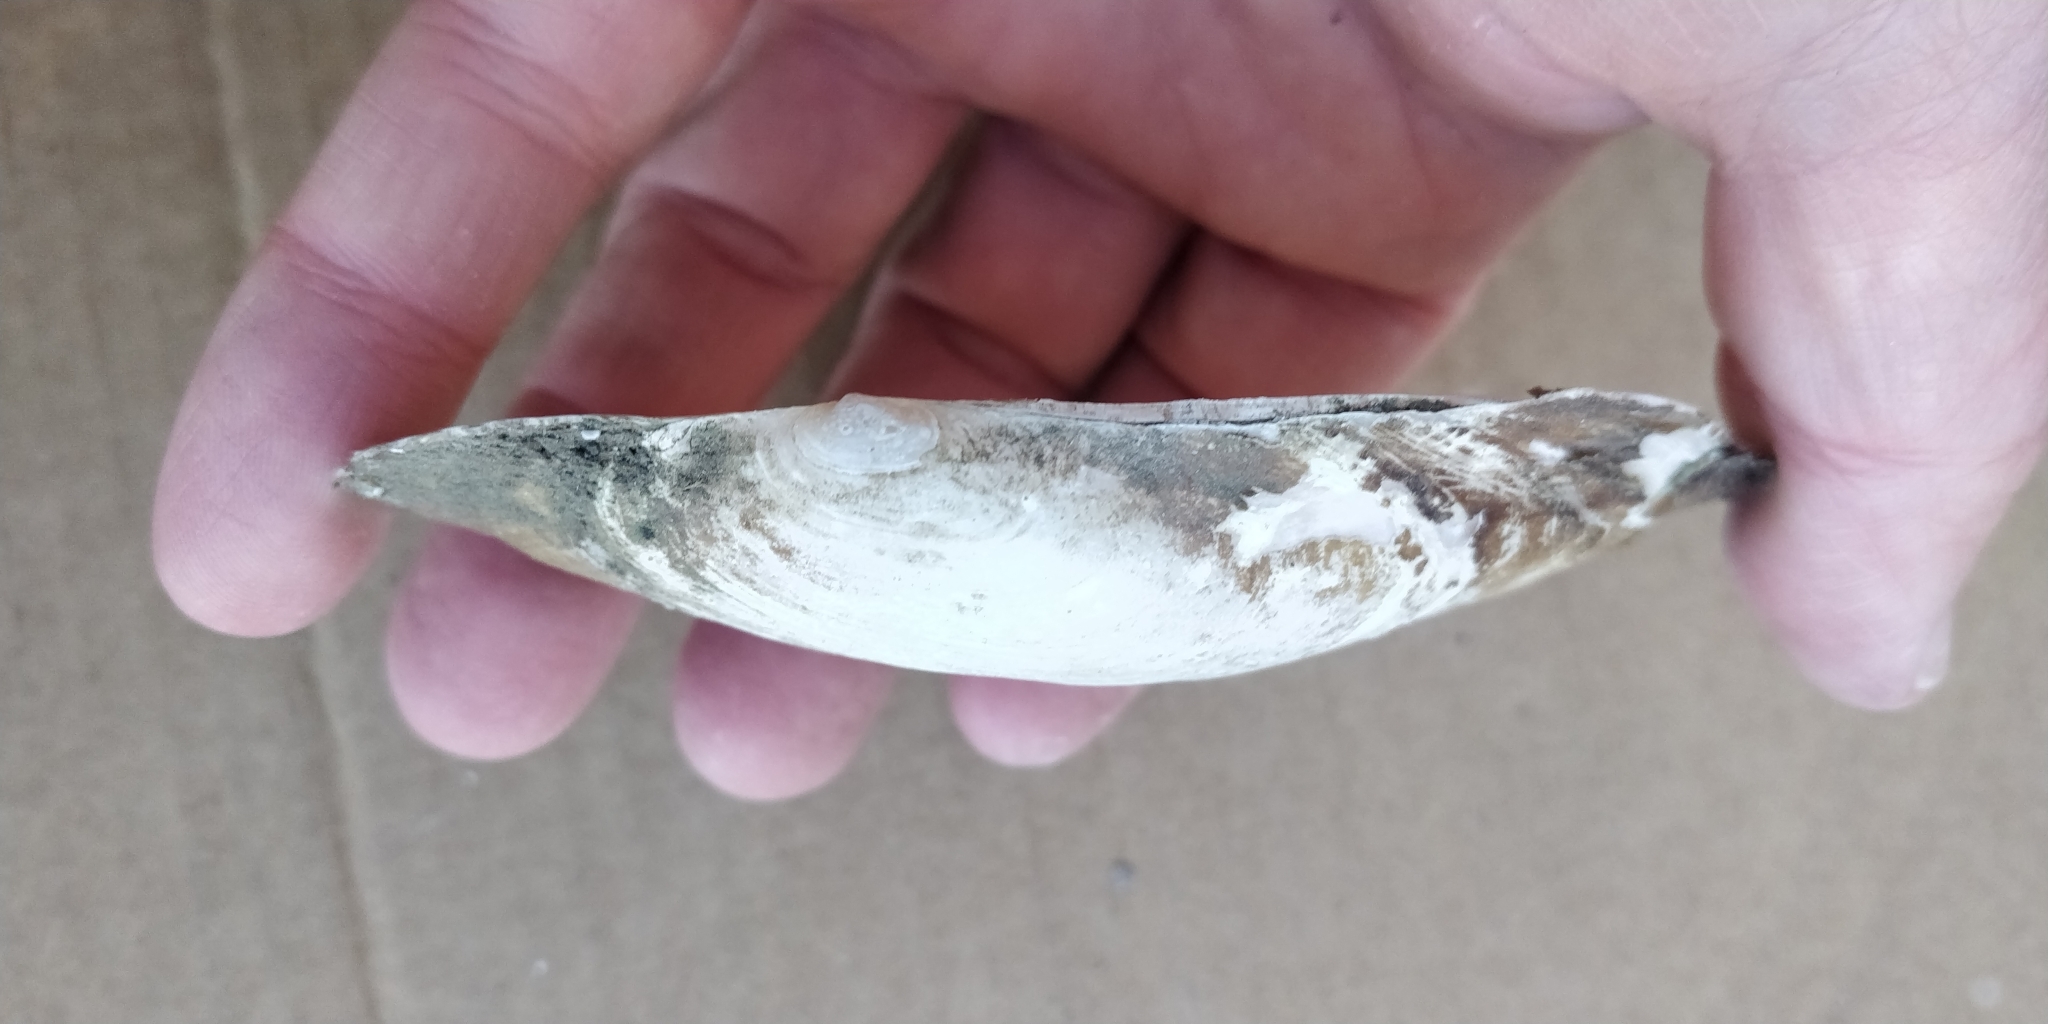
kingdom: Animalia
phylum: Mollusca
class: Bivalvia
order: Unionida
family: Unionidae
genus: Potamilus
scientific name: Potamilus fragilis
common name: Fragile papershell
